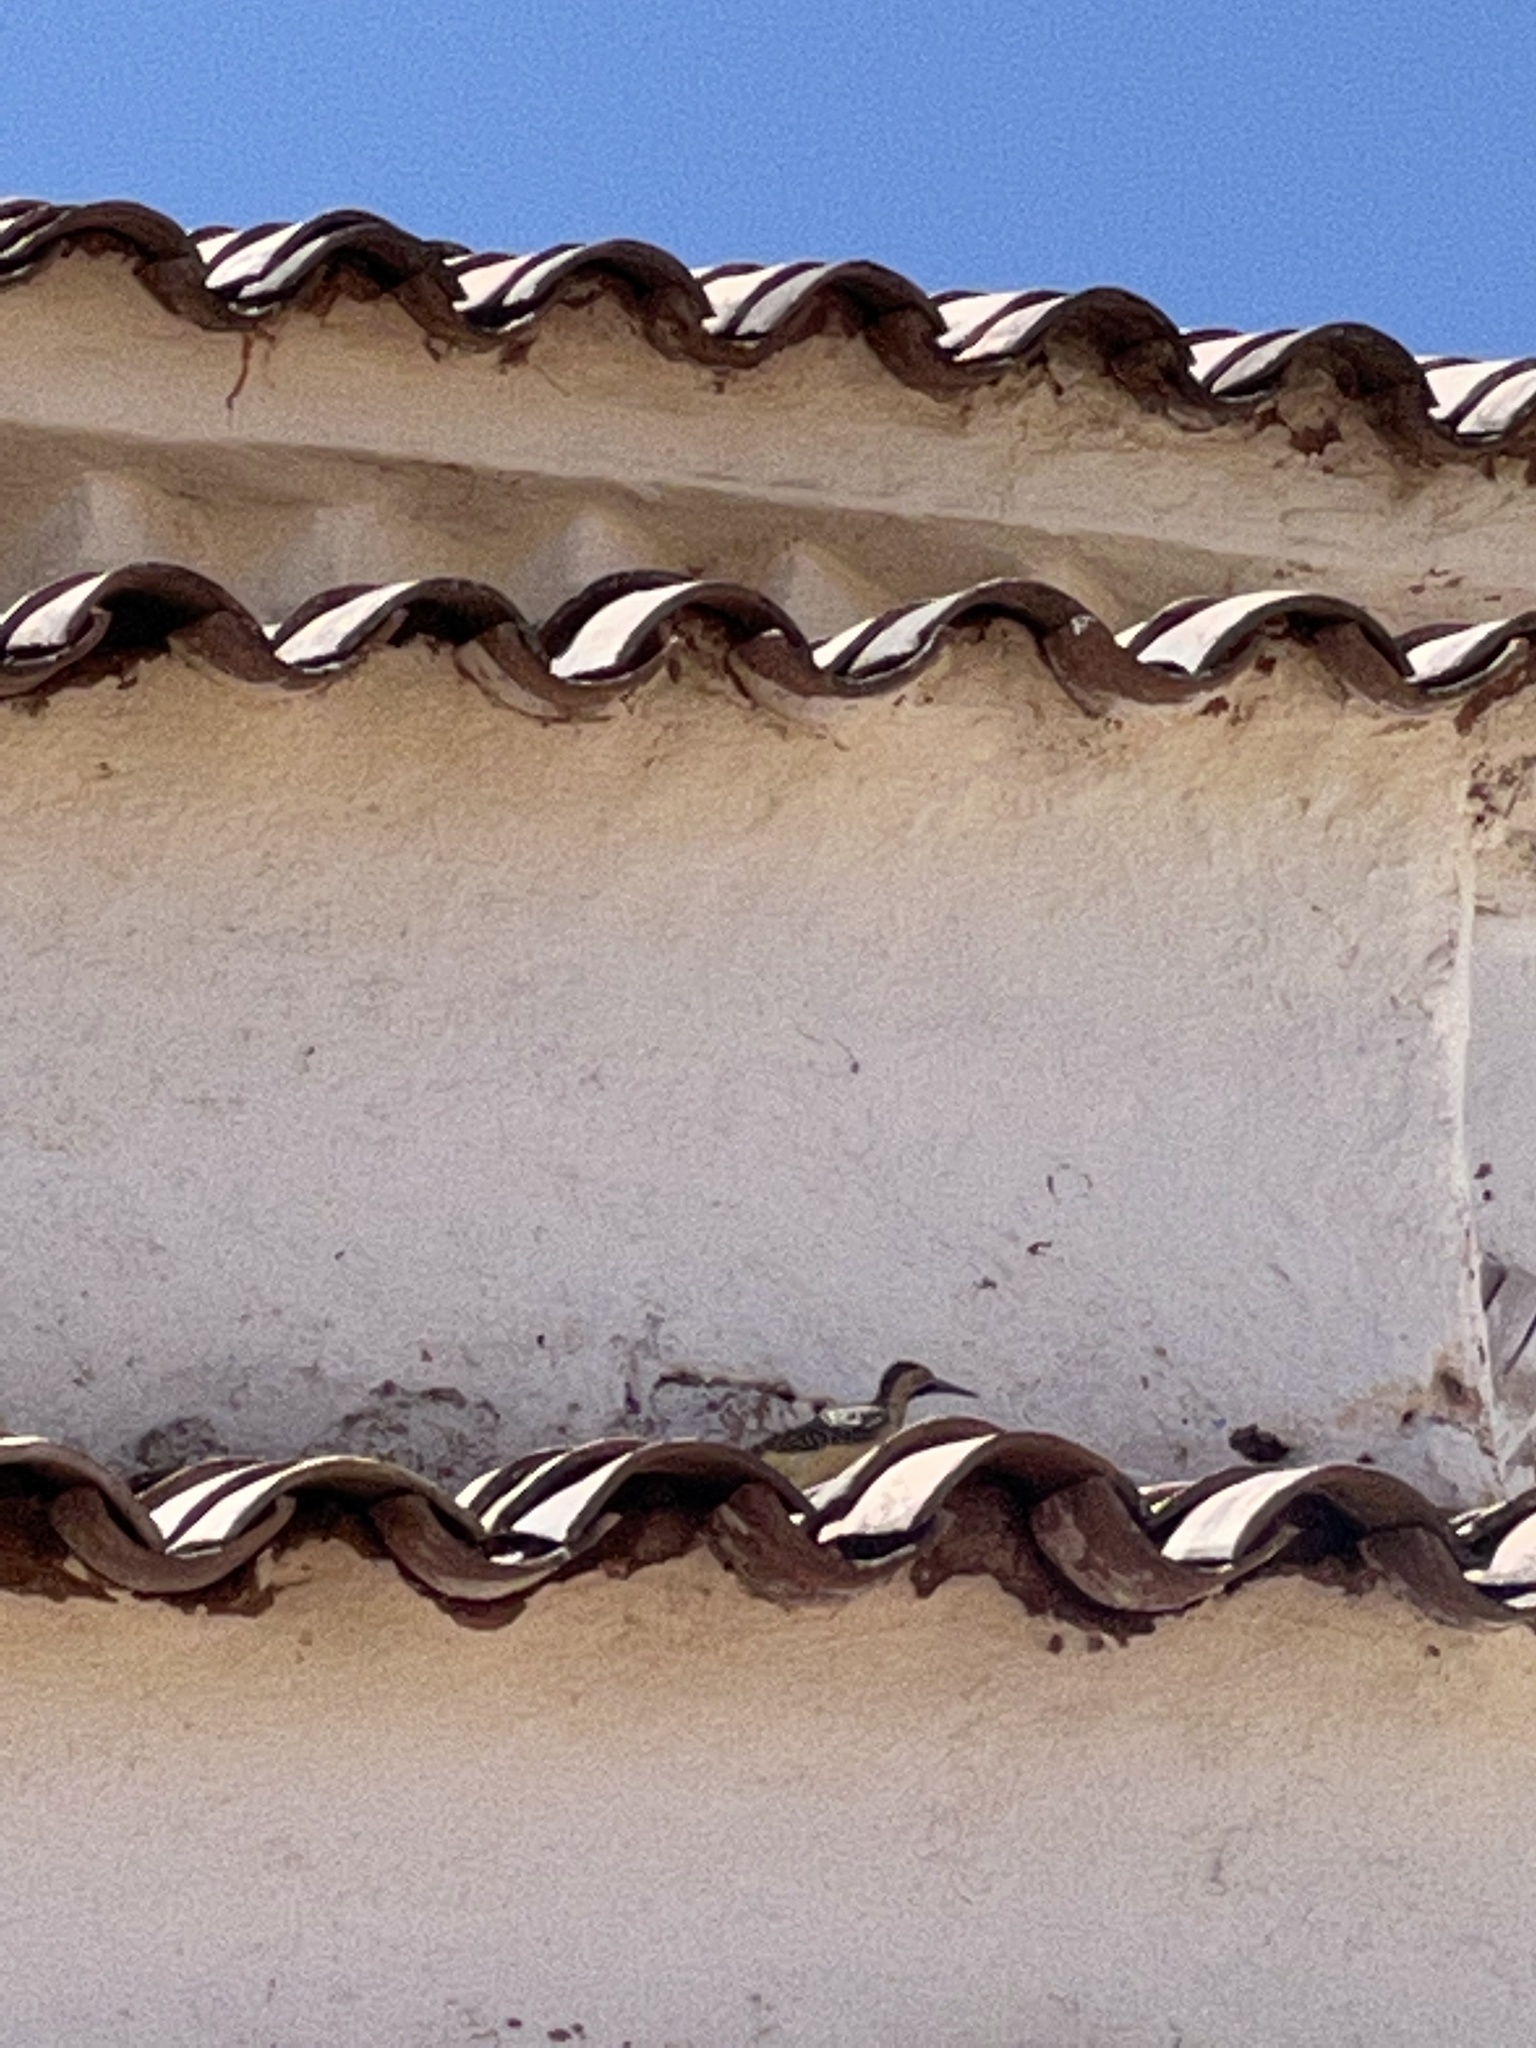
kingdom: Animalia
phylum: Chordata
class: Aves
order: Piciformes
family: Picidae
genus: Colaptes
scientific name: Colaptes rupicola
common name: Andean flicker
